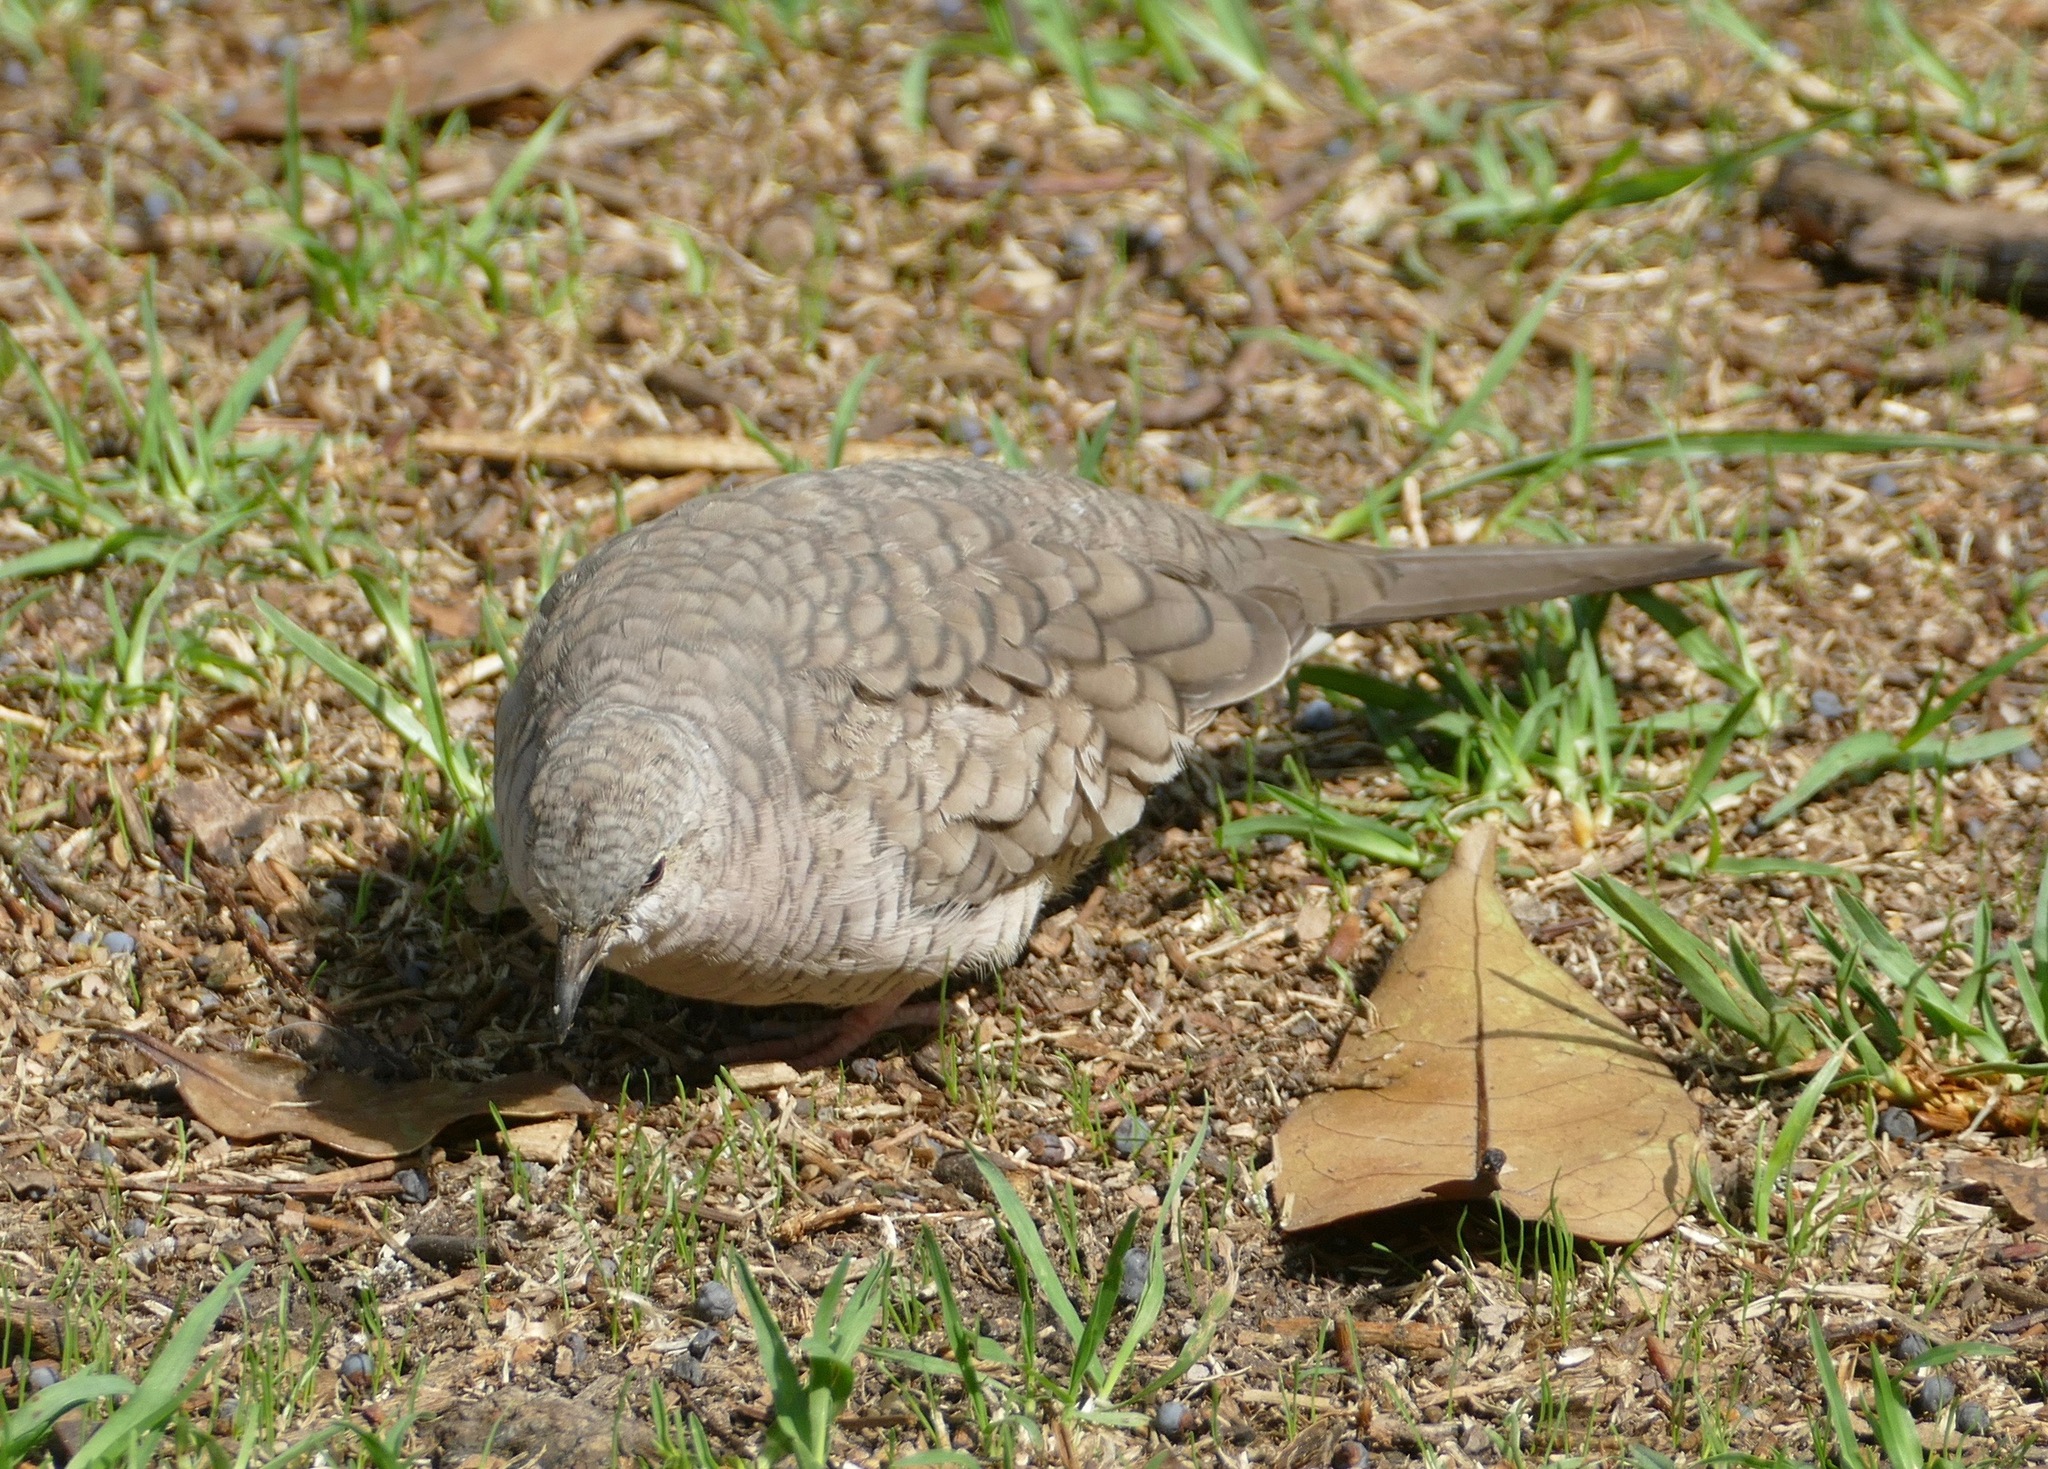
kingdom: Animalia
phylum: Chordata
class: Aves
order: Columbiformes
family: Columbidae
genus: Columbina
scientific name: Columbina inca
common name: Inca dove
